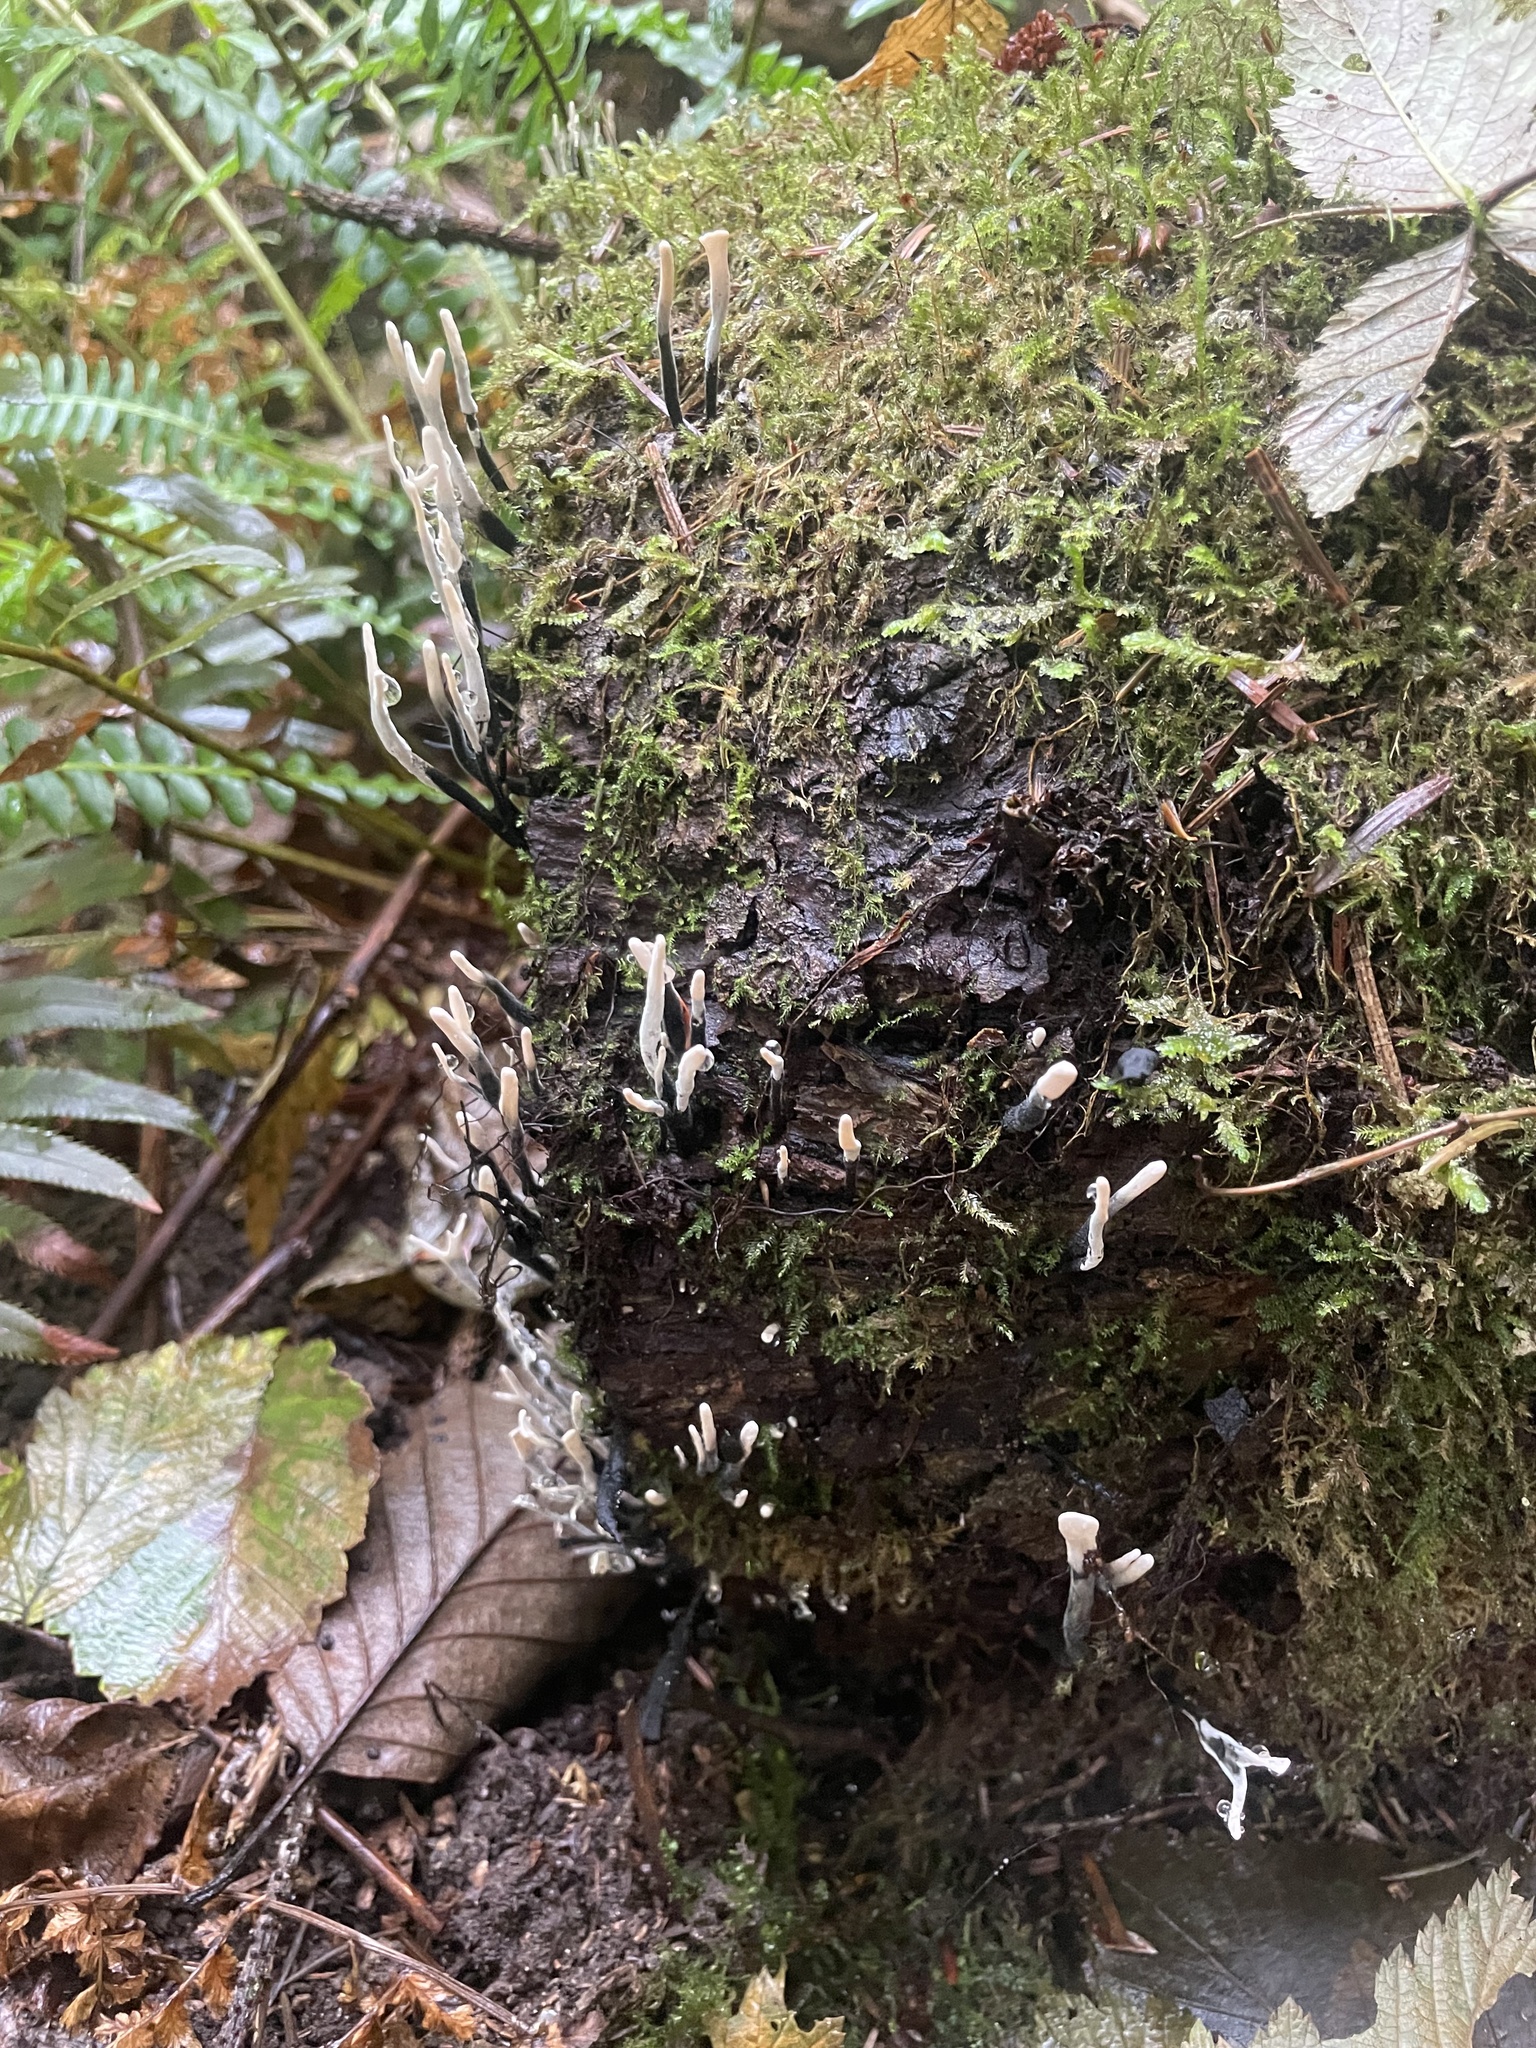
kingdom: Fungi
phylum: Ascomycota
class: Sordariomycetes
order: Xylariales
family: Xylariaceae
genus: Xylaria
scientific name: Xylaria hypoxylon
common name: Candle-snuff fungus
